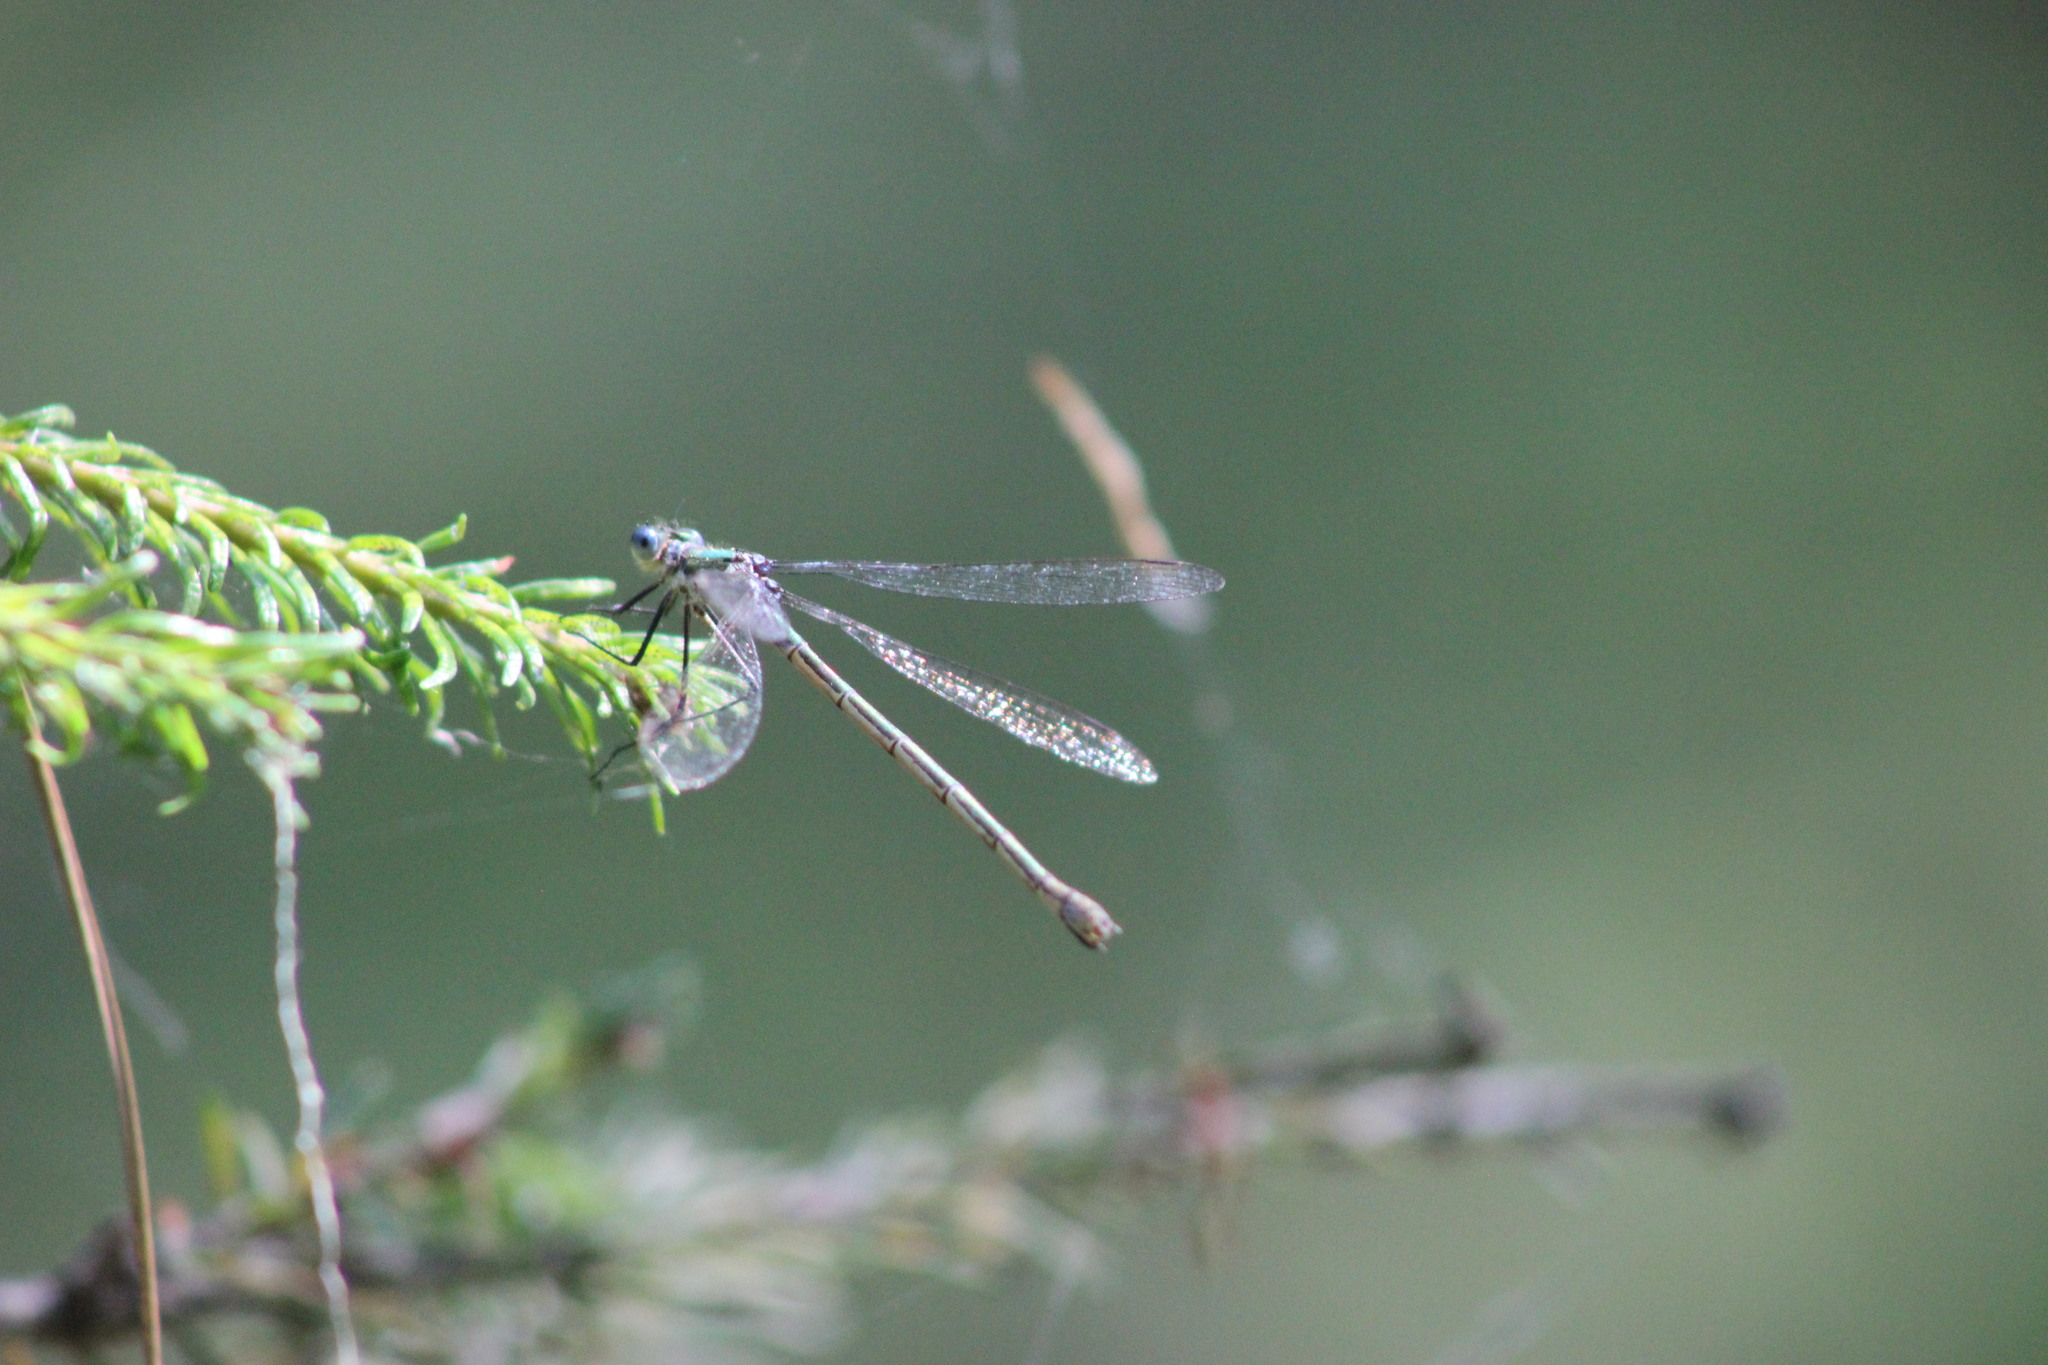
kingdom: Animalia
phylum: Arthropoda
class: Insecta
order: Odonata
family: Lestidae
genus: Lestes
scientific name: Lestes sponsa
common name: Common spreadwing
